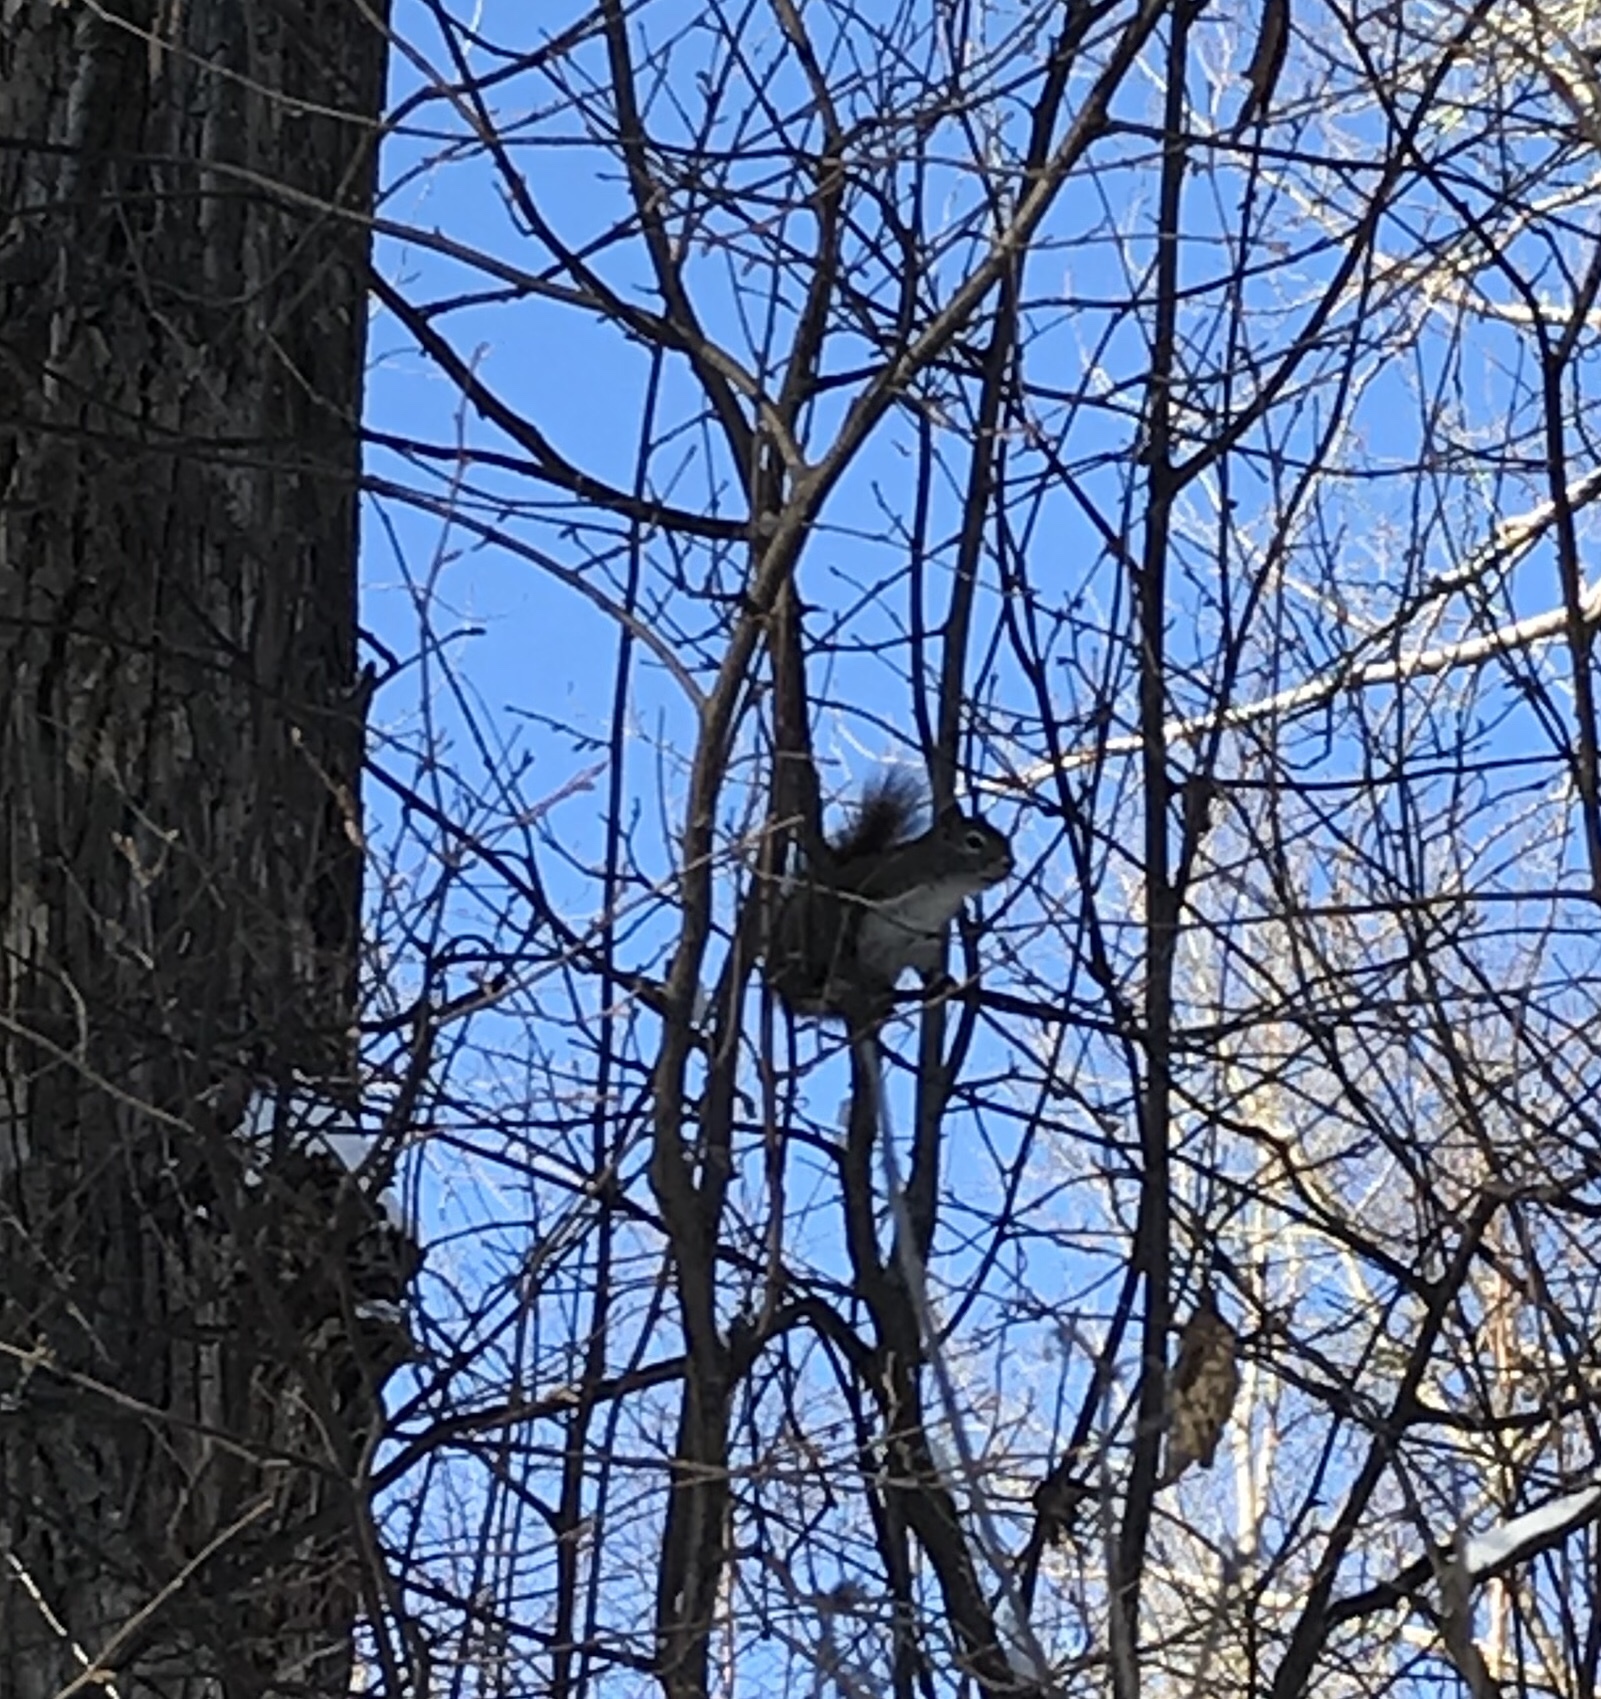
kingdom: Animalia
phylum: Chordata
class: Mammalia
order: Rodentia
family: Sciuridae
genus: Tamiasciurus
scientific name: Tamiasciurus hudsonicus
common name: Red squirrel
